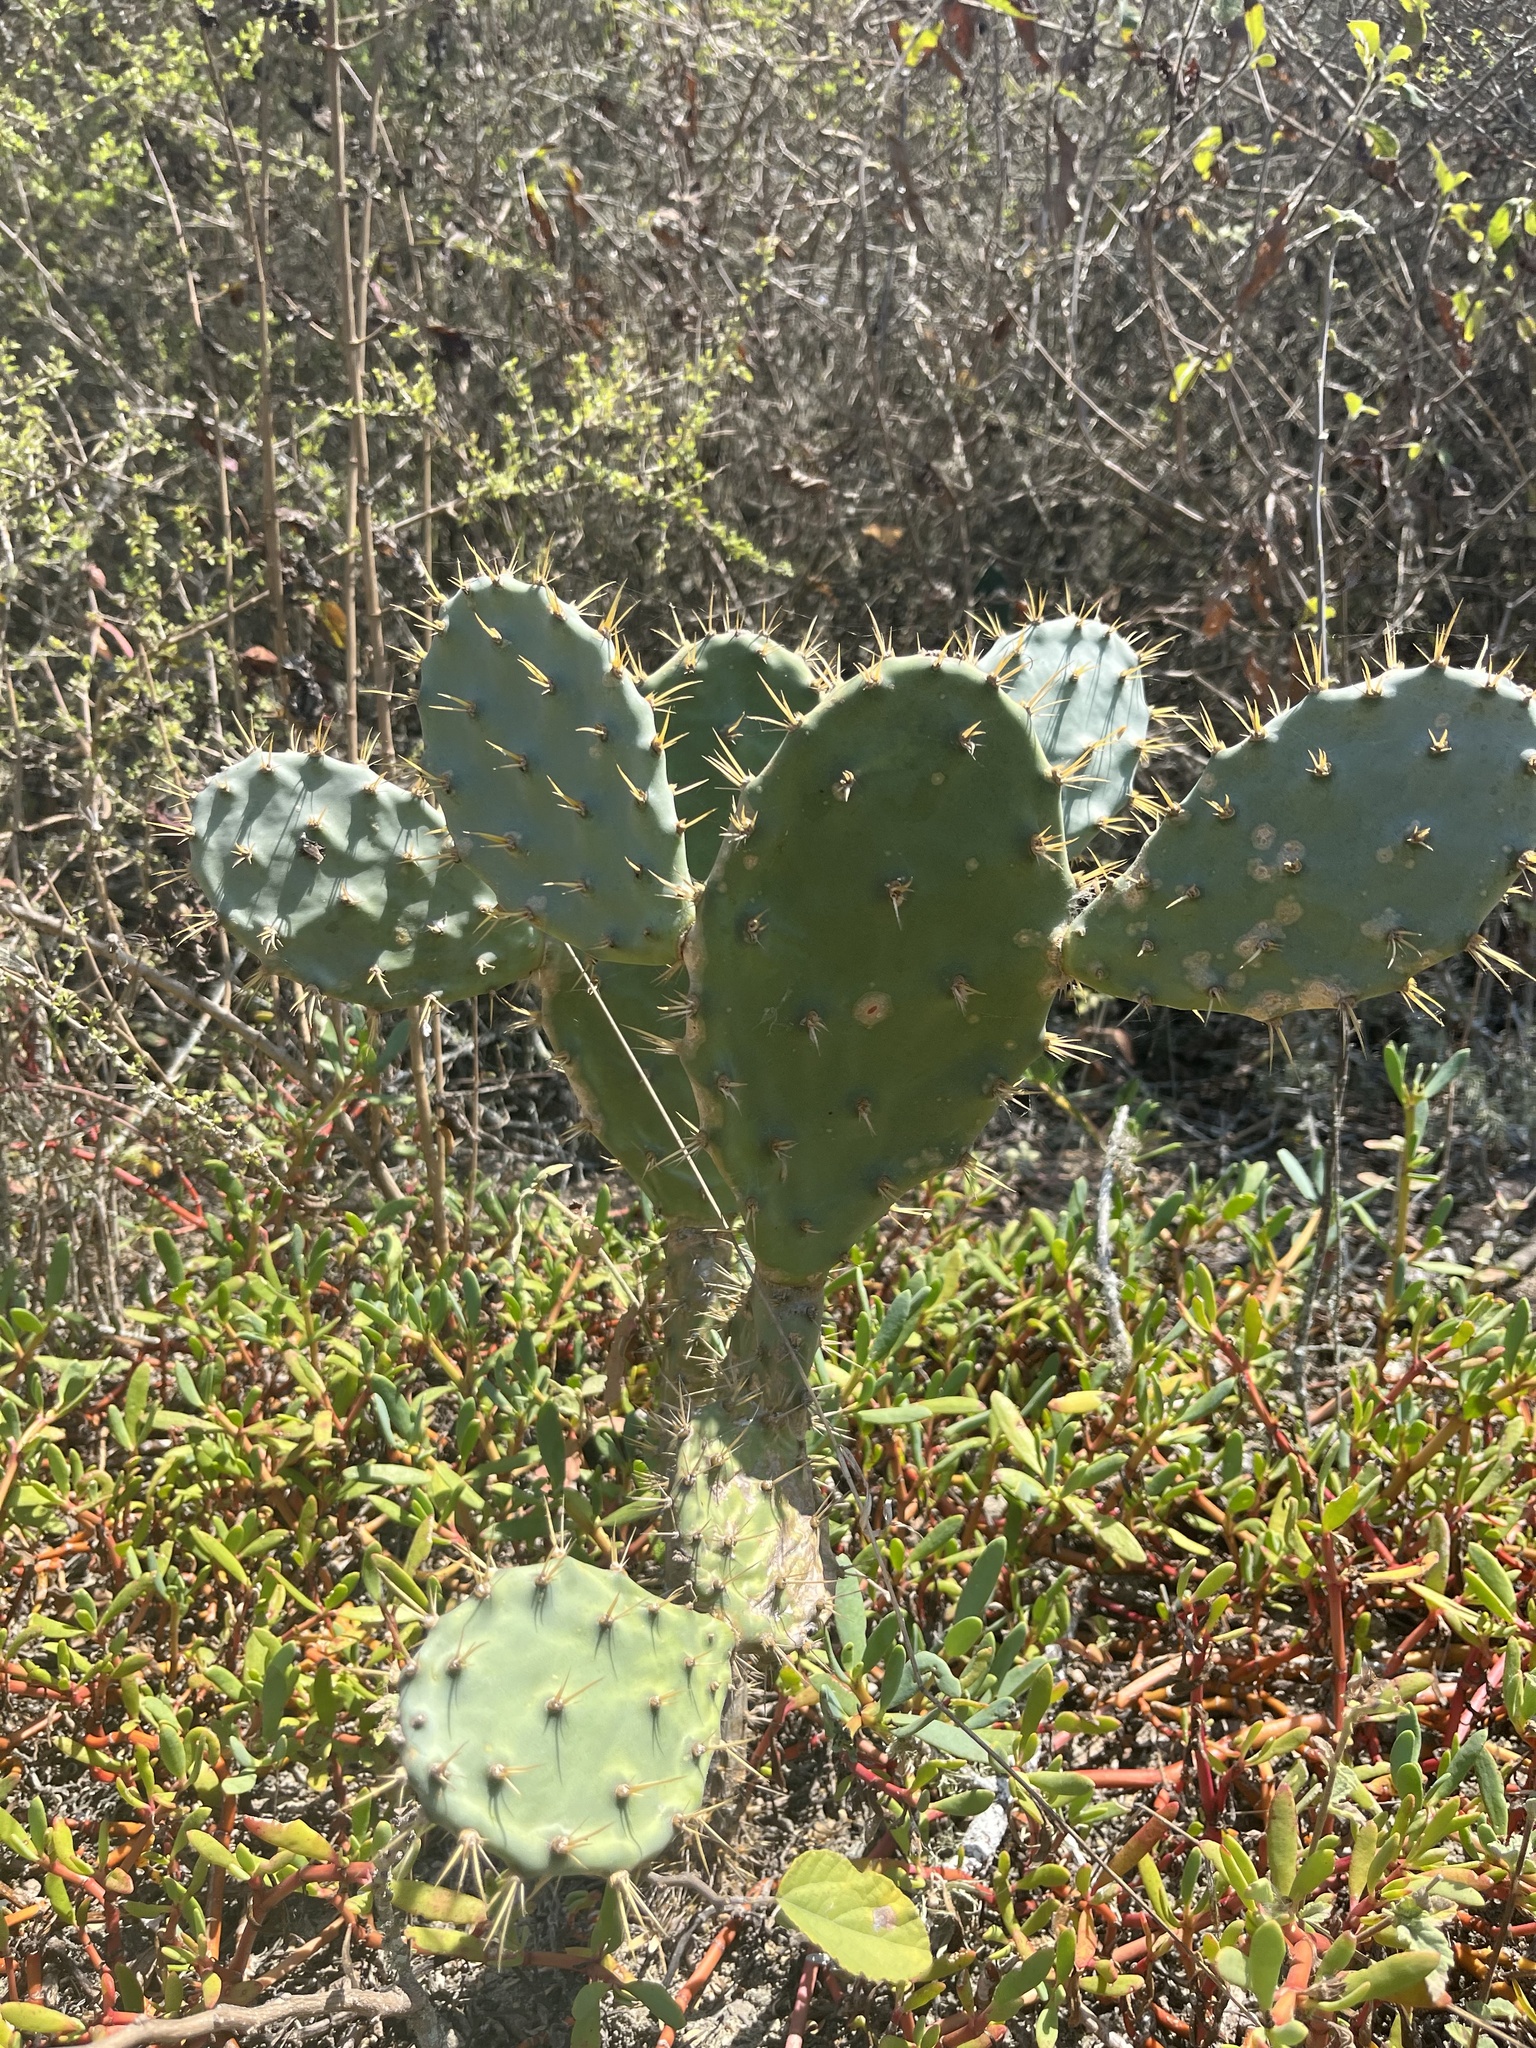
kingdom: Plantae
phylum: Tracheophyta
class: Magnoliopsida
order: Caryophyllales
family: Cactaceae
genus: Opuntia
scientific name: Opuntia tuna
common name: Tuna
